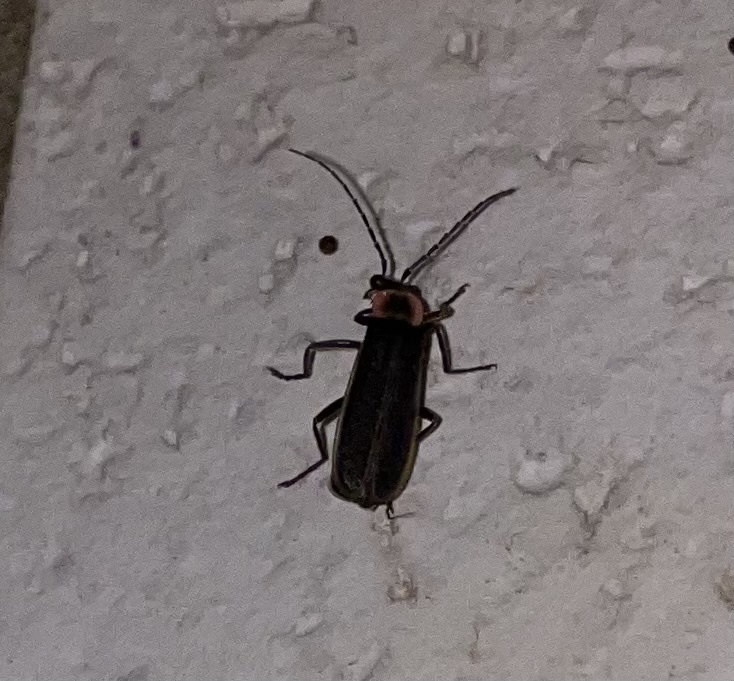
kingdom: Animalia
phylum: Arthropoda
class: Insecta
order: Coleoptera
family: Cantharidae
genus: Podabrus
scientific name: Podabrus brevicollis
